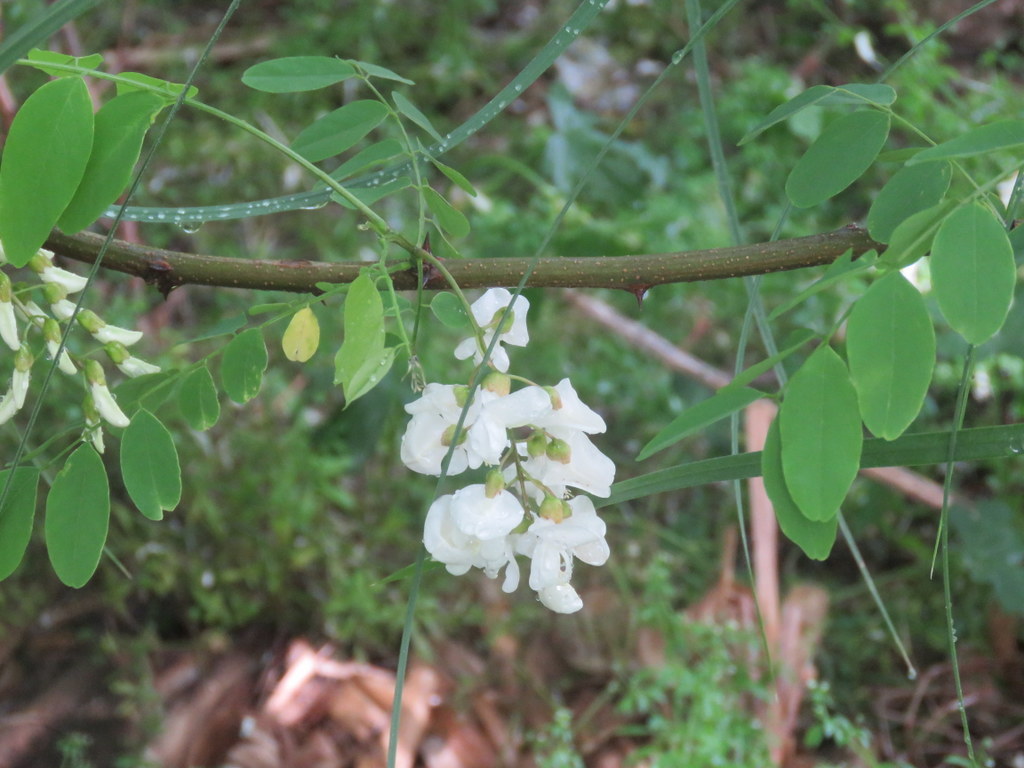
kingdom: Plantae
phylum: Tracheophyta
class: Magnoliopsida
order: Fabales
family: Fabaceae
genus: Robinia
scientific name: Robinia pseudoacacia
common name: Black locust
